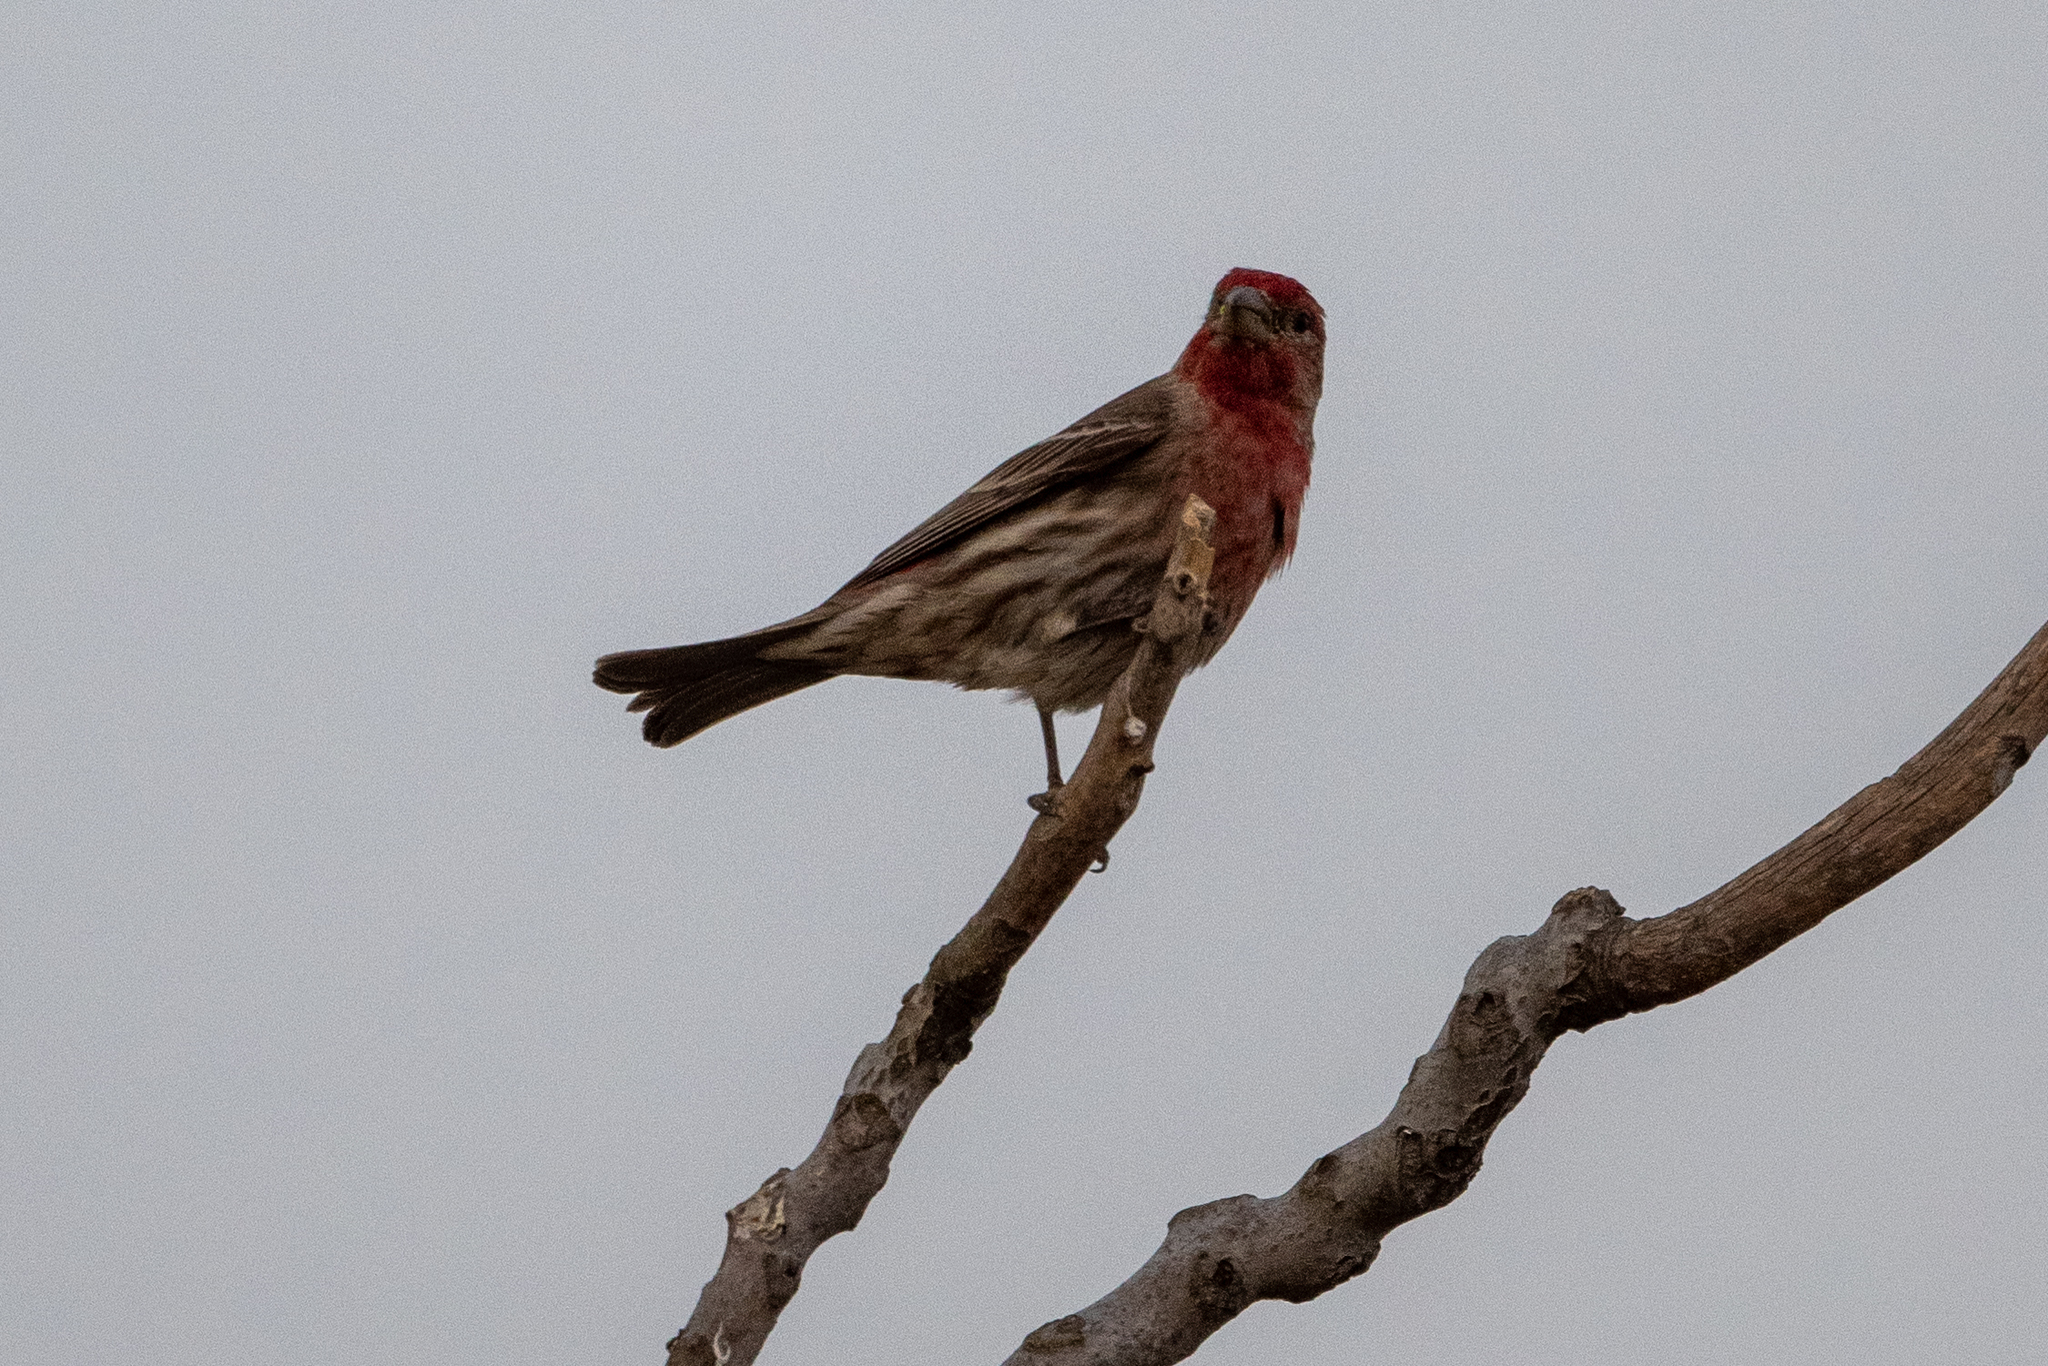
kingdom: Animalia
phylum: Chordata
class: Aves
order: Passeriformes
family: Fringillidae
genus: Haemorhous
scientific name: Haemorhous mexicanus
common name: House finch
